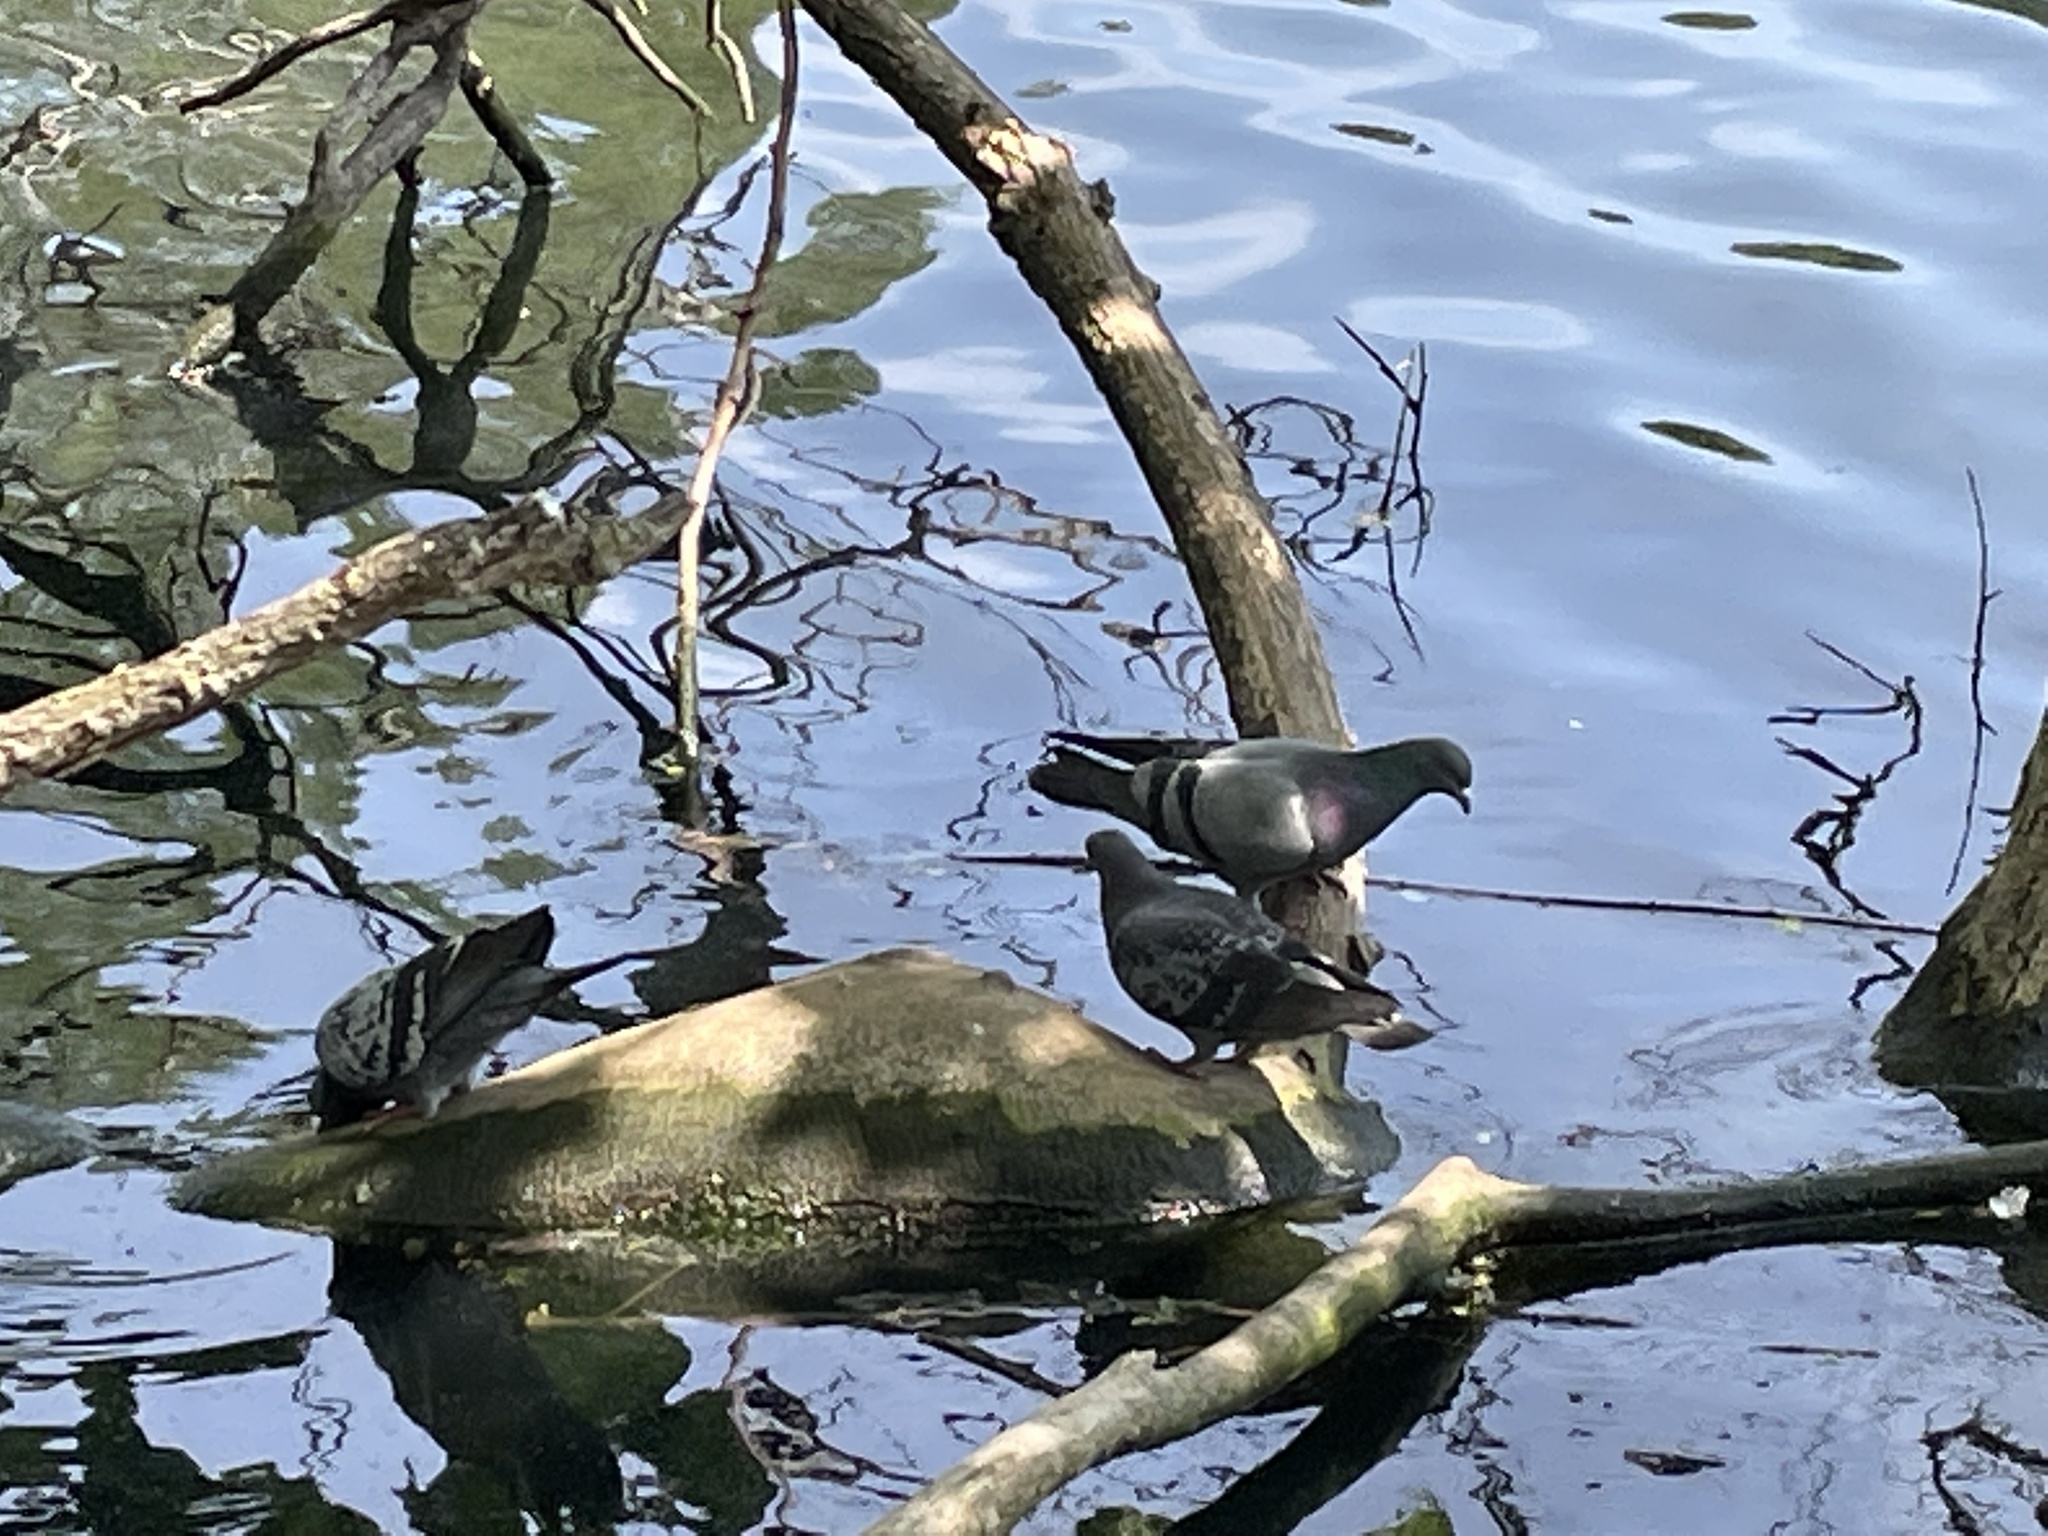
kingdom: Animalia
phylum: Chordata
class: Aves
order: Columbiformes
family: Columbidae
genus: Columba
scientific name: Columba livia
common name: Rock pigeon
